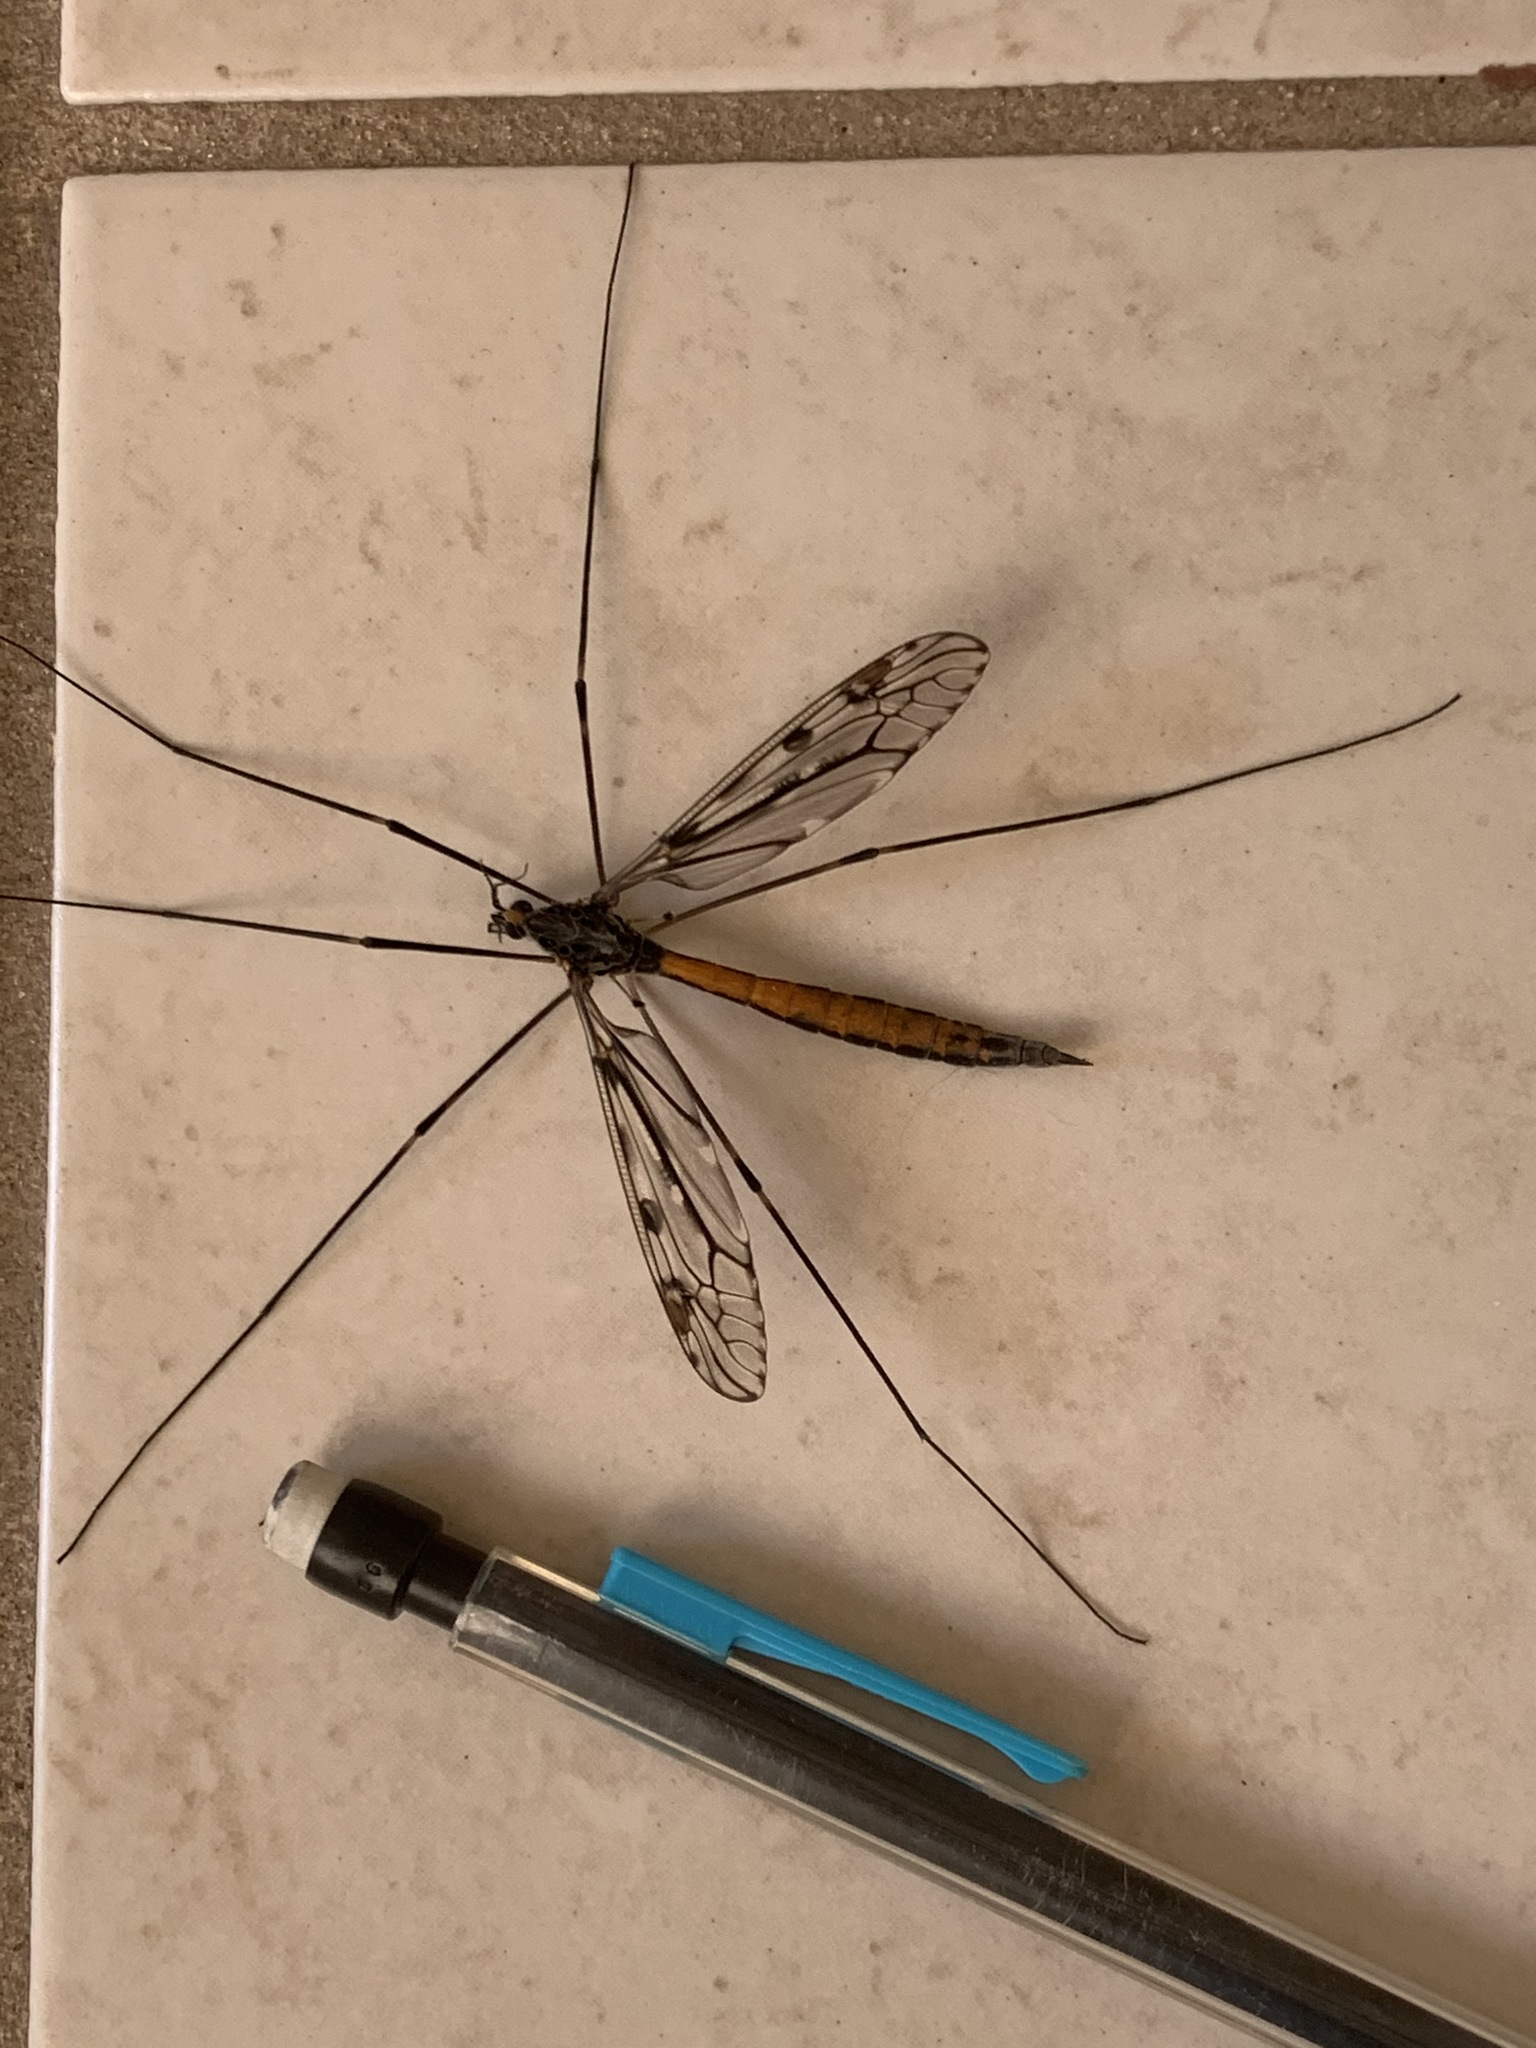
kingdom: Animalia
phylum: Arthropoda
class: Insecta
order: Diptera
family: Tipulidae
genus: Tipula
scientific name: Tipula abdominalis
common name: Giant crane fly
